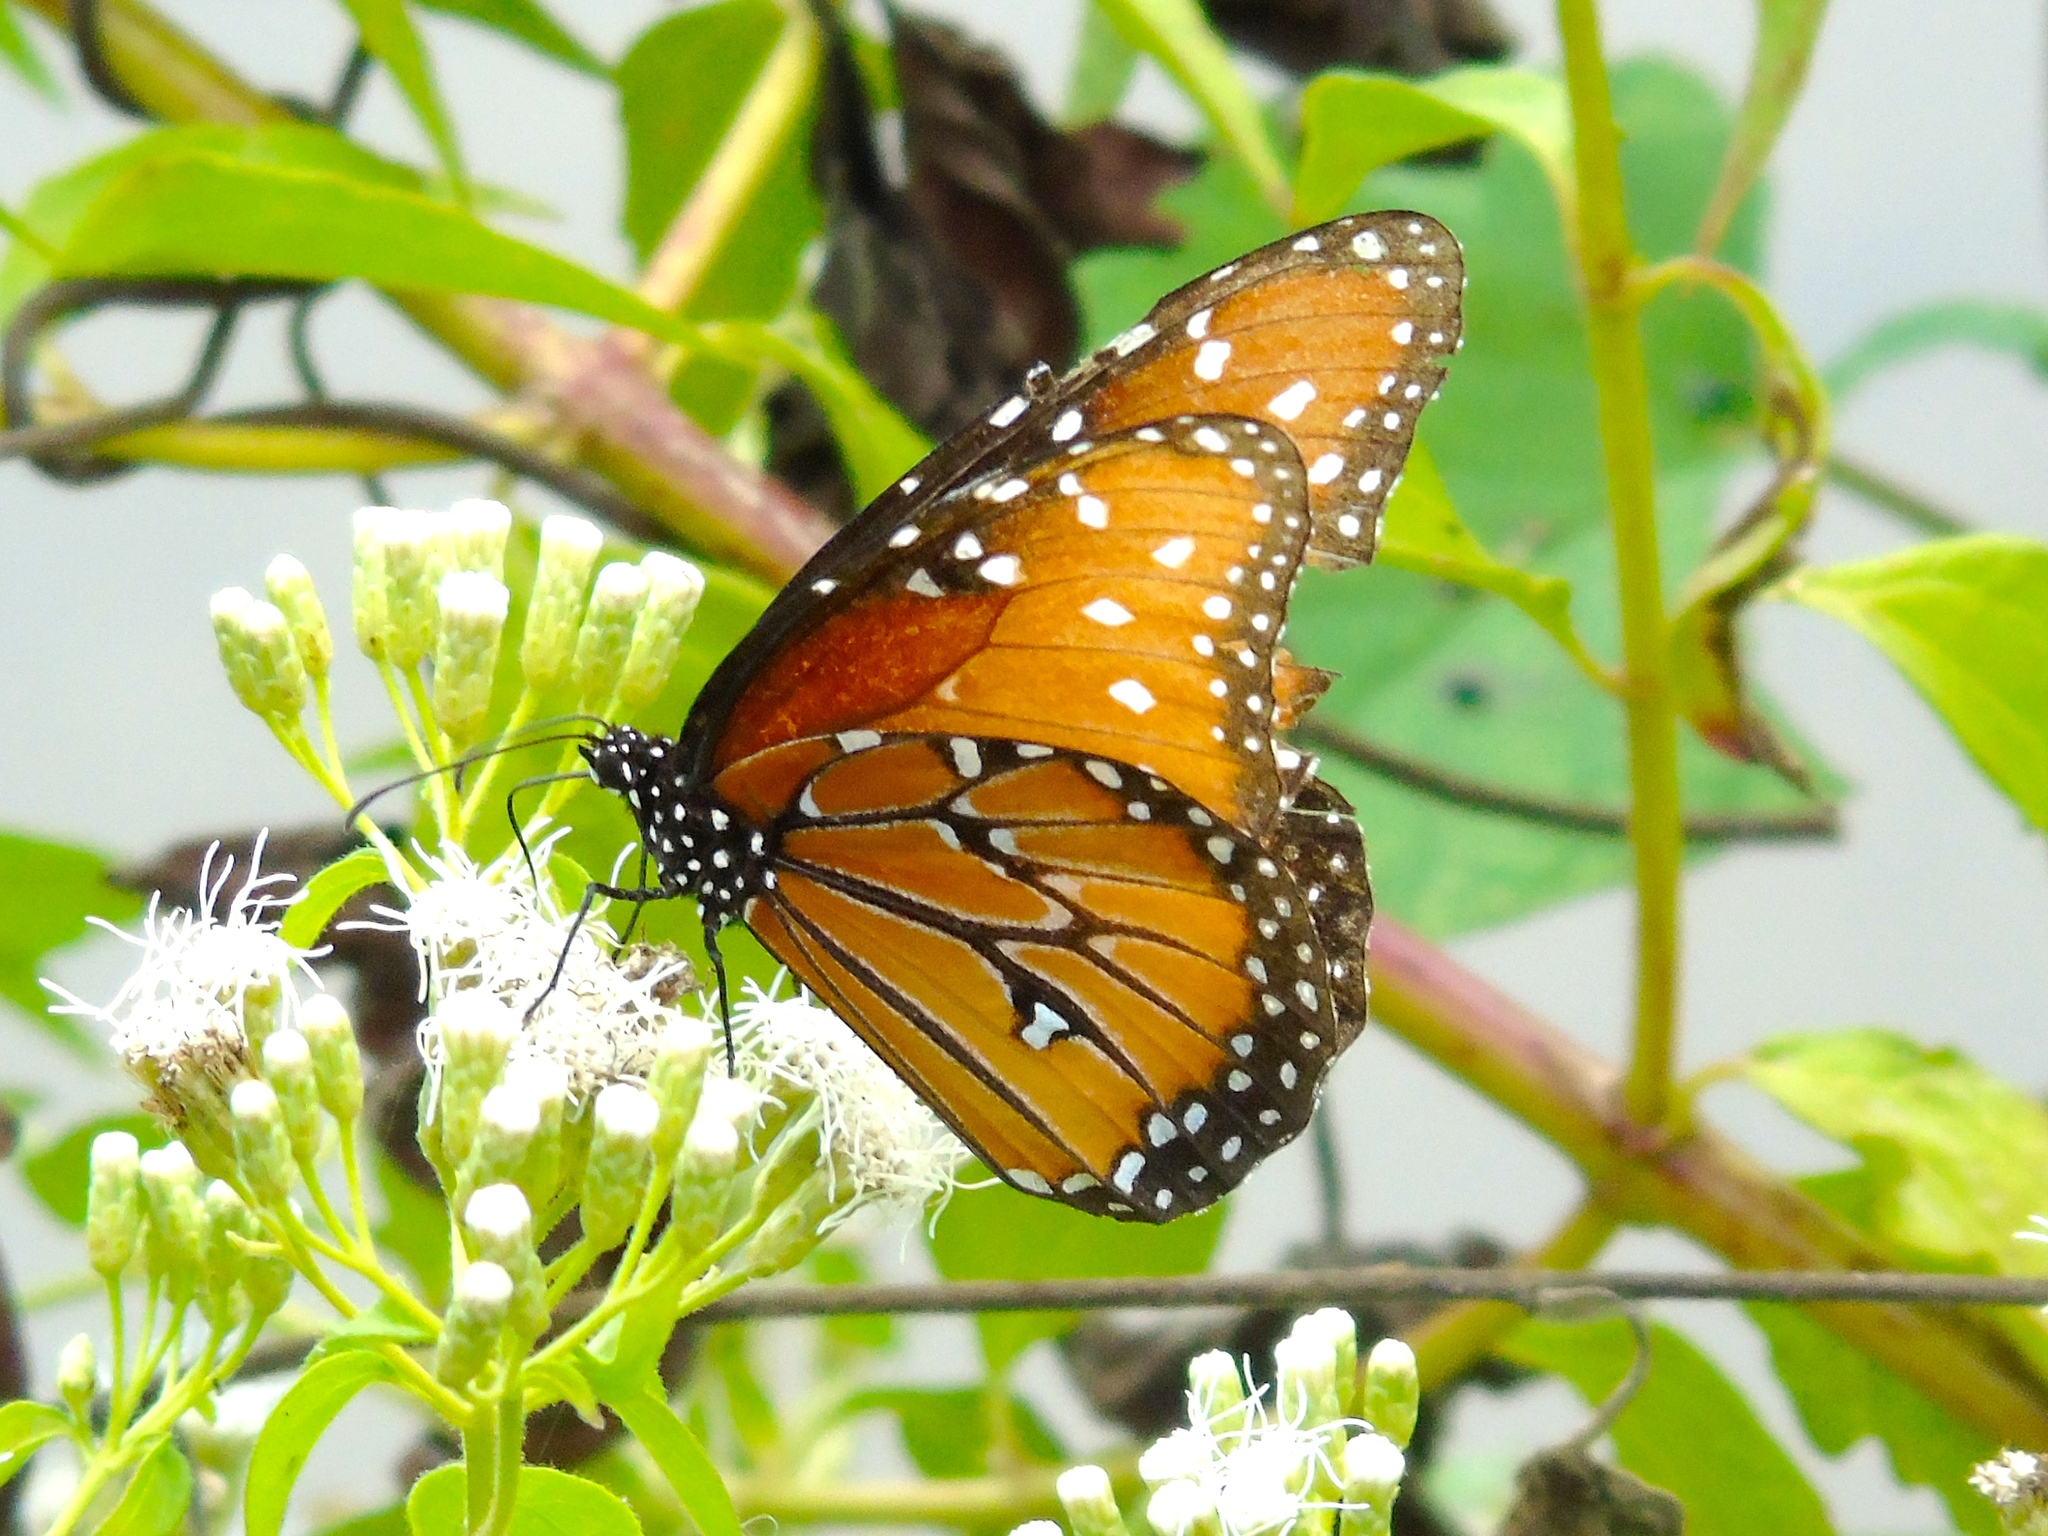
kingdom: Animalia
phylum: Arthropoda
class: Insecta
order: Lepidoptera
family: Nymphalidae
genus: Danaus
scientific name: Danaus gilippus
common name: Queen
